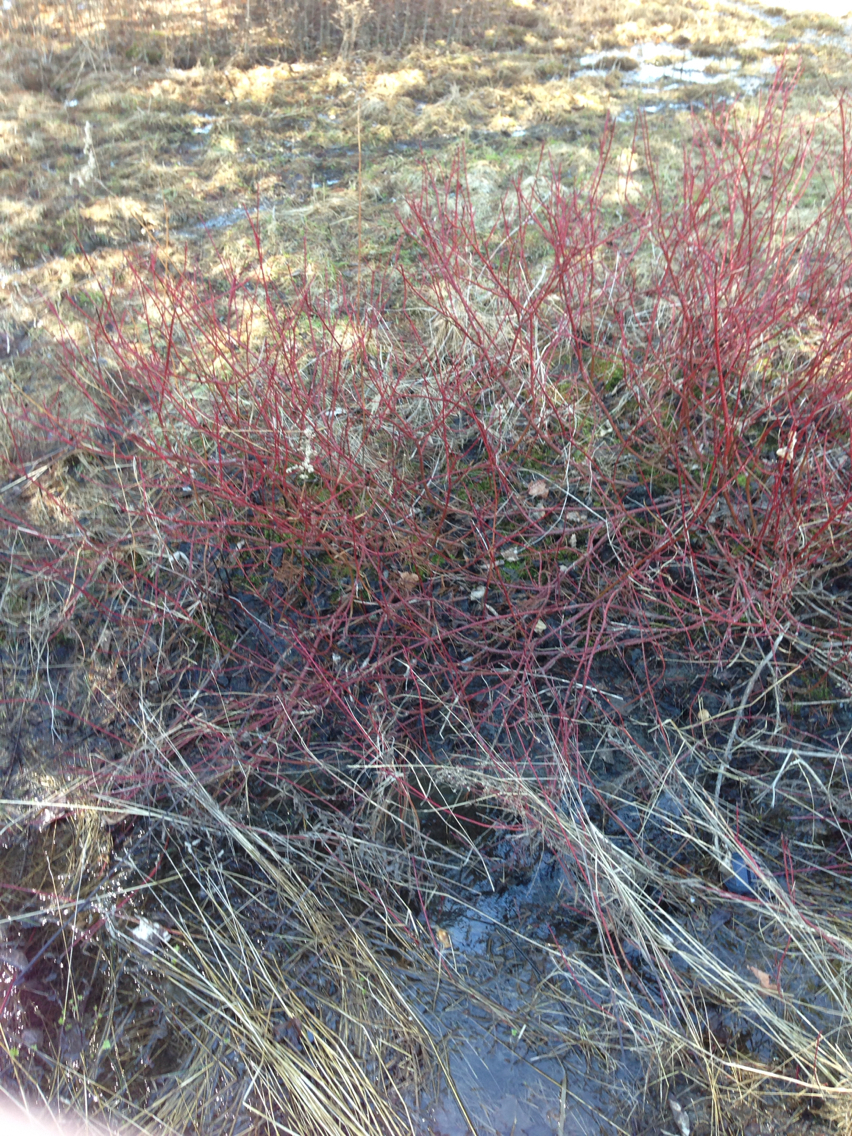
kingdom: Plantae
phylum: Tracheophyta
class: Magnoliopsida
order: Cornales
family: Cornaceae
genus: Cornus
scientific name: Cornus sericea
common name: Red-osier dogwood
